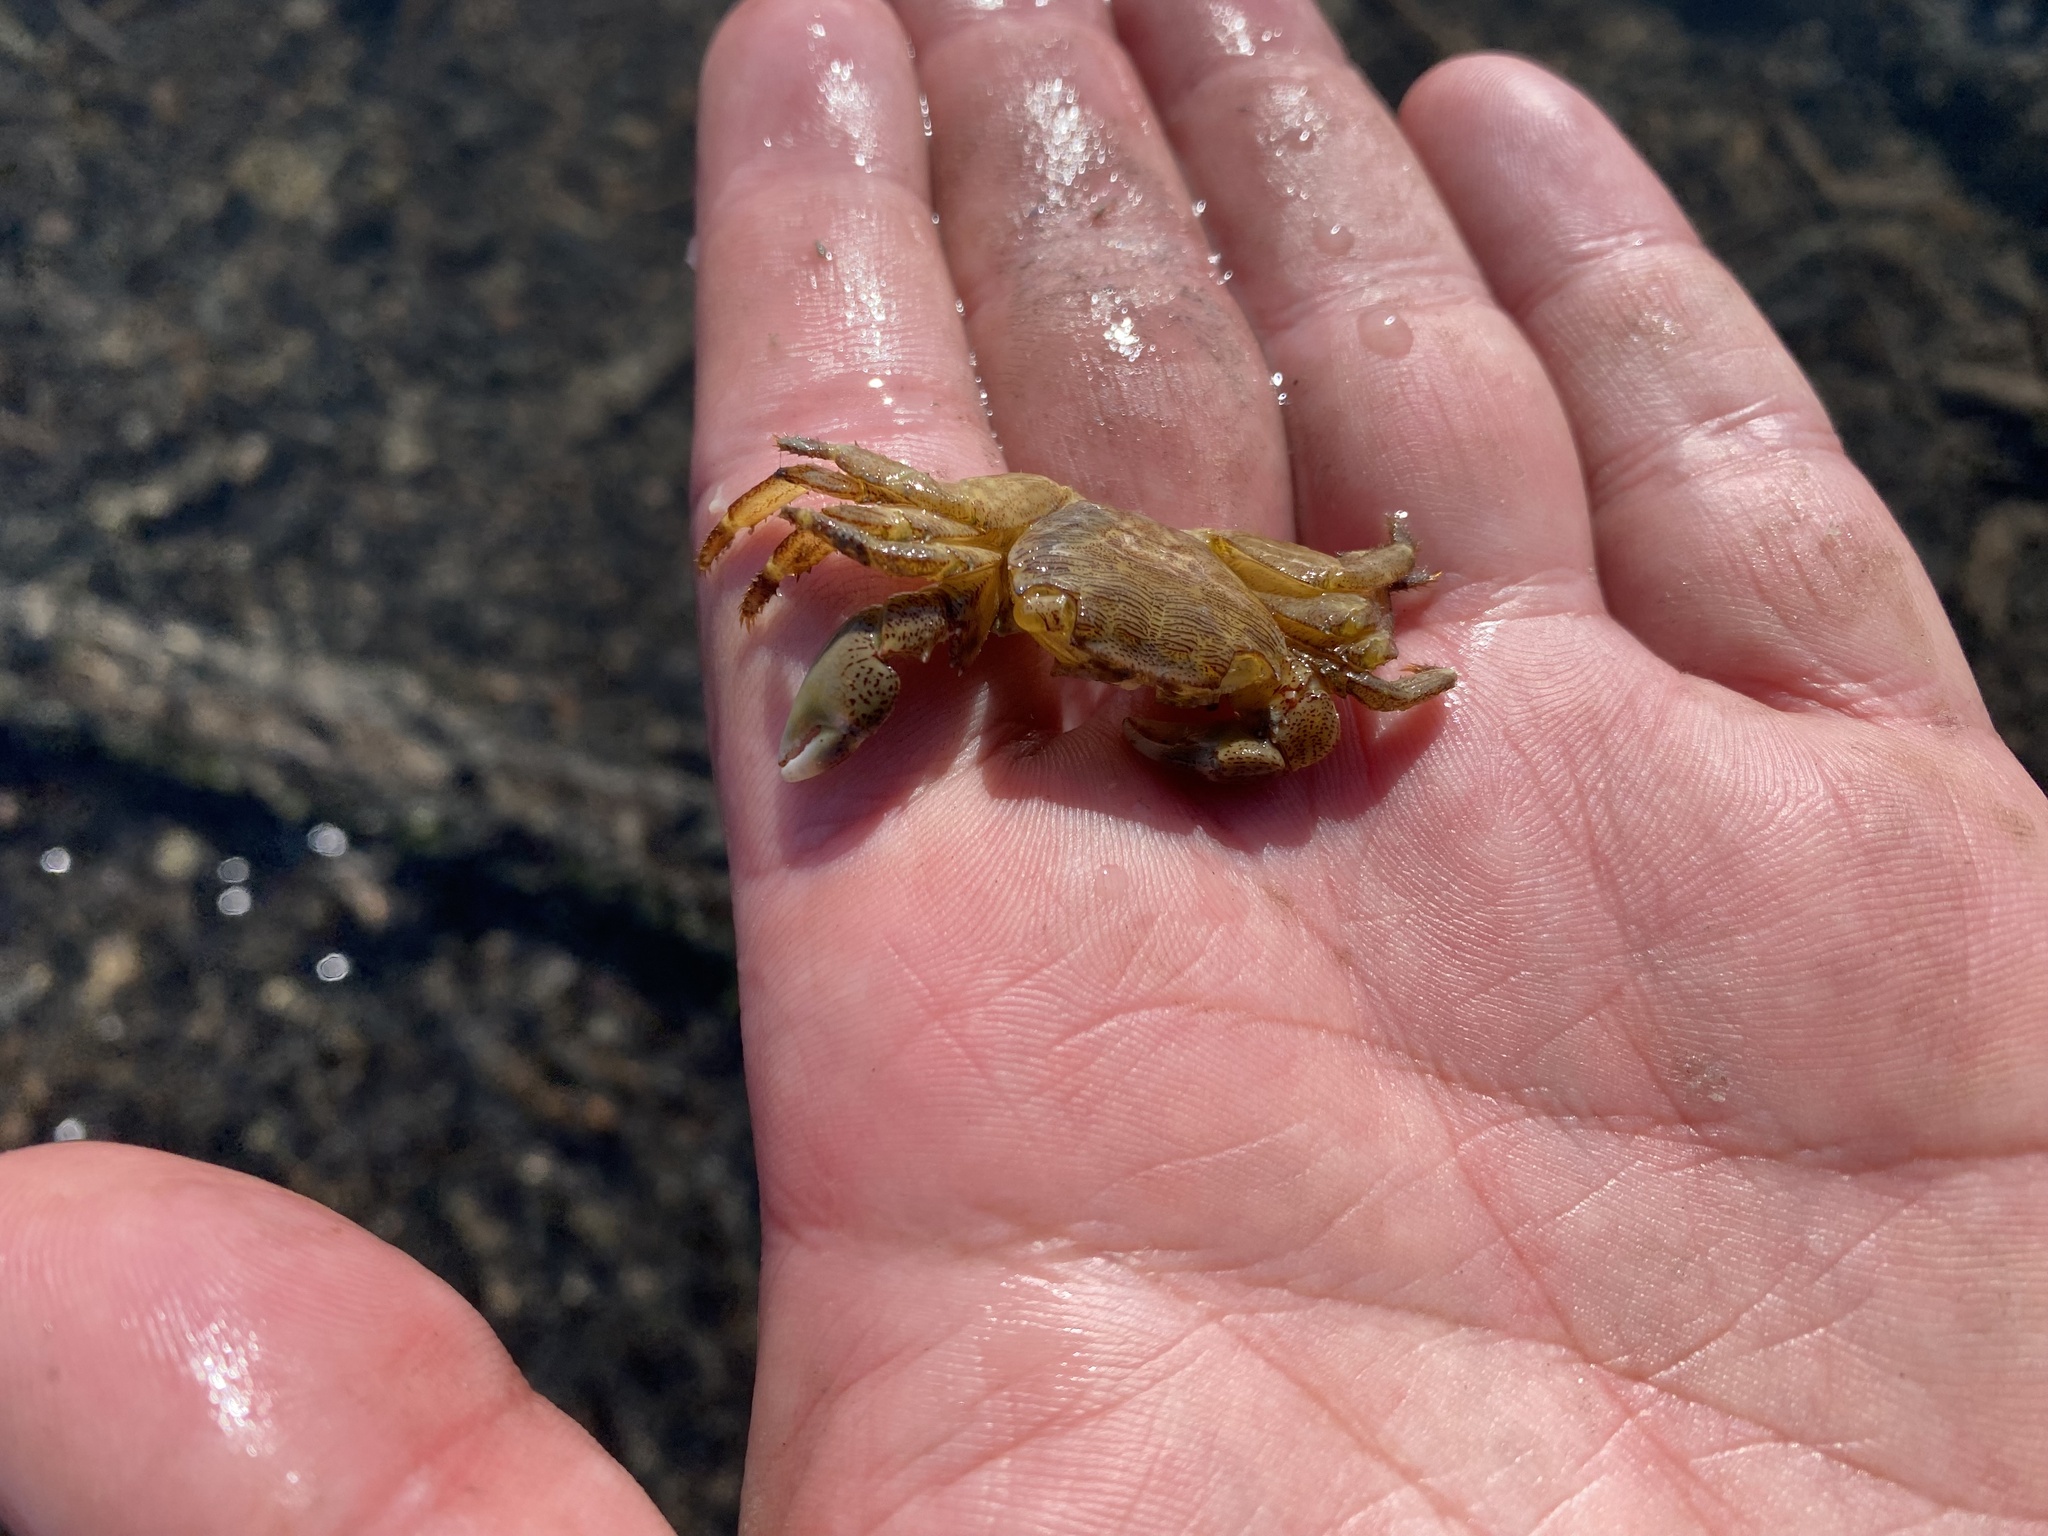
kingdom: Animalia
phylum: Arthropoda
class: Malacostraca
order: Decapoda
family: Grapsidae
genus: Pachygrapsus
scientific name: Pachygrapsus crassipes
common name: Striped shore crab
